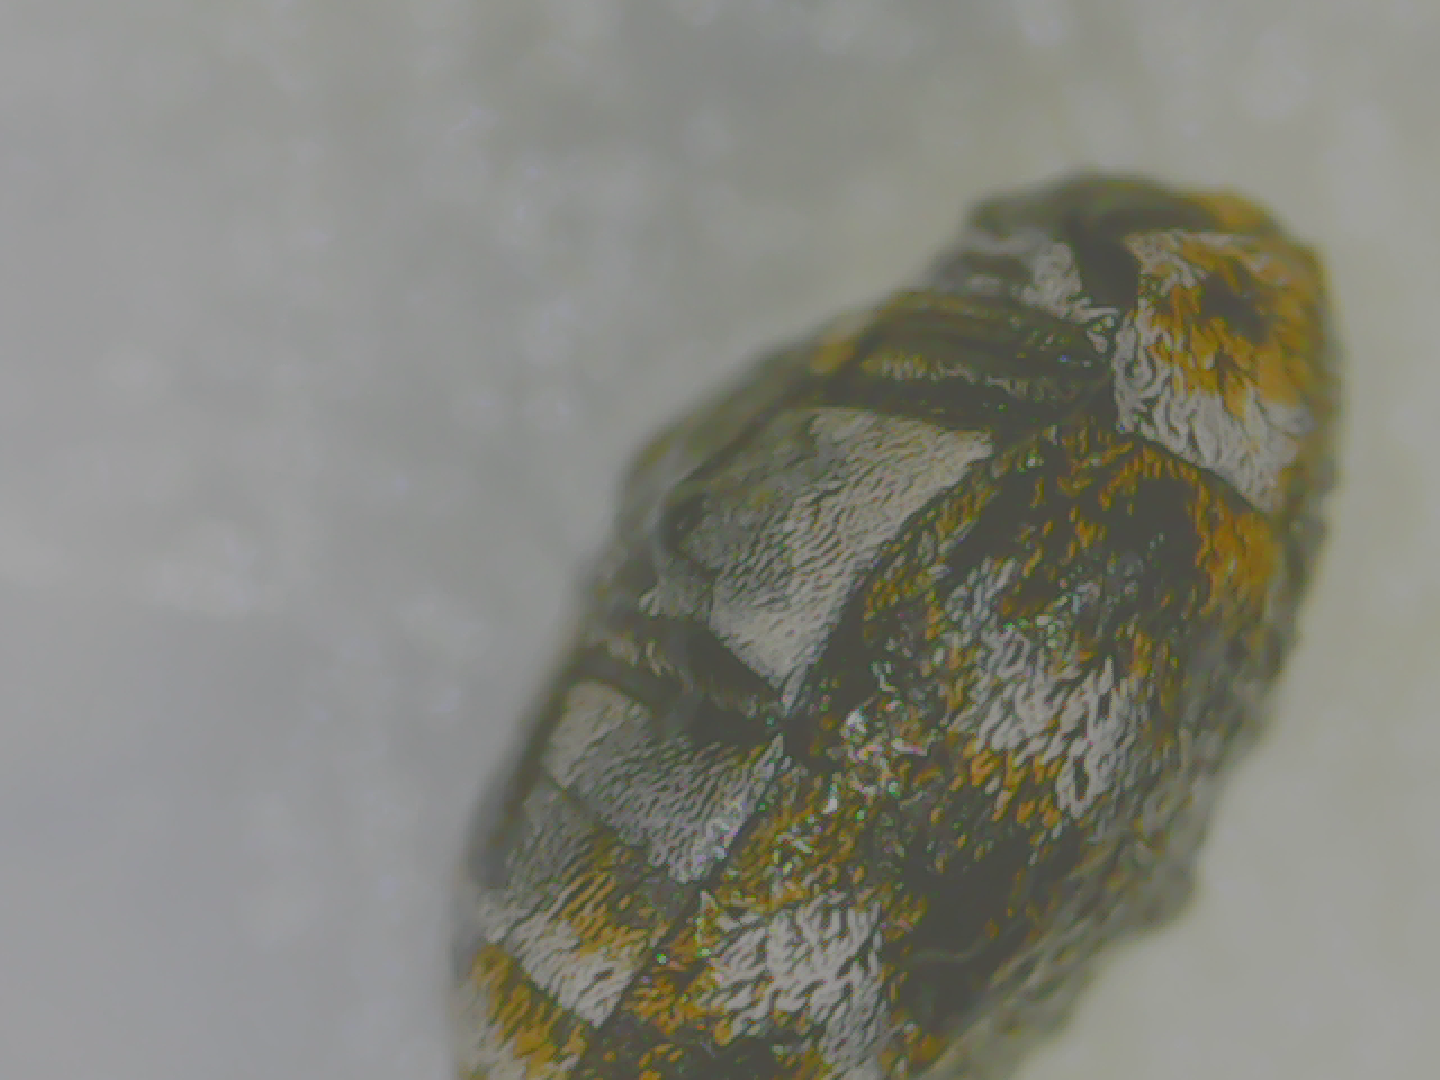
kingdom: Animalia
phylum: Arthropoda
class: Insecta
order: Coleoptera
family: Dermestidae
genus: Anthrenus
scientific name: Anthrenus verbasci
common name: Varied carpet beetle
